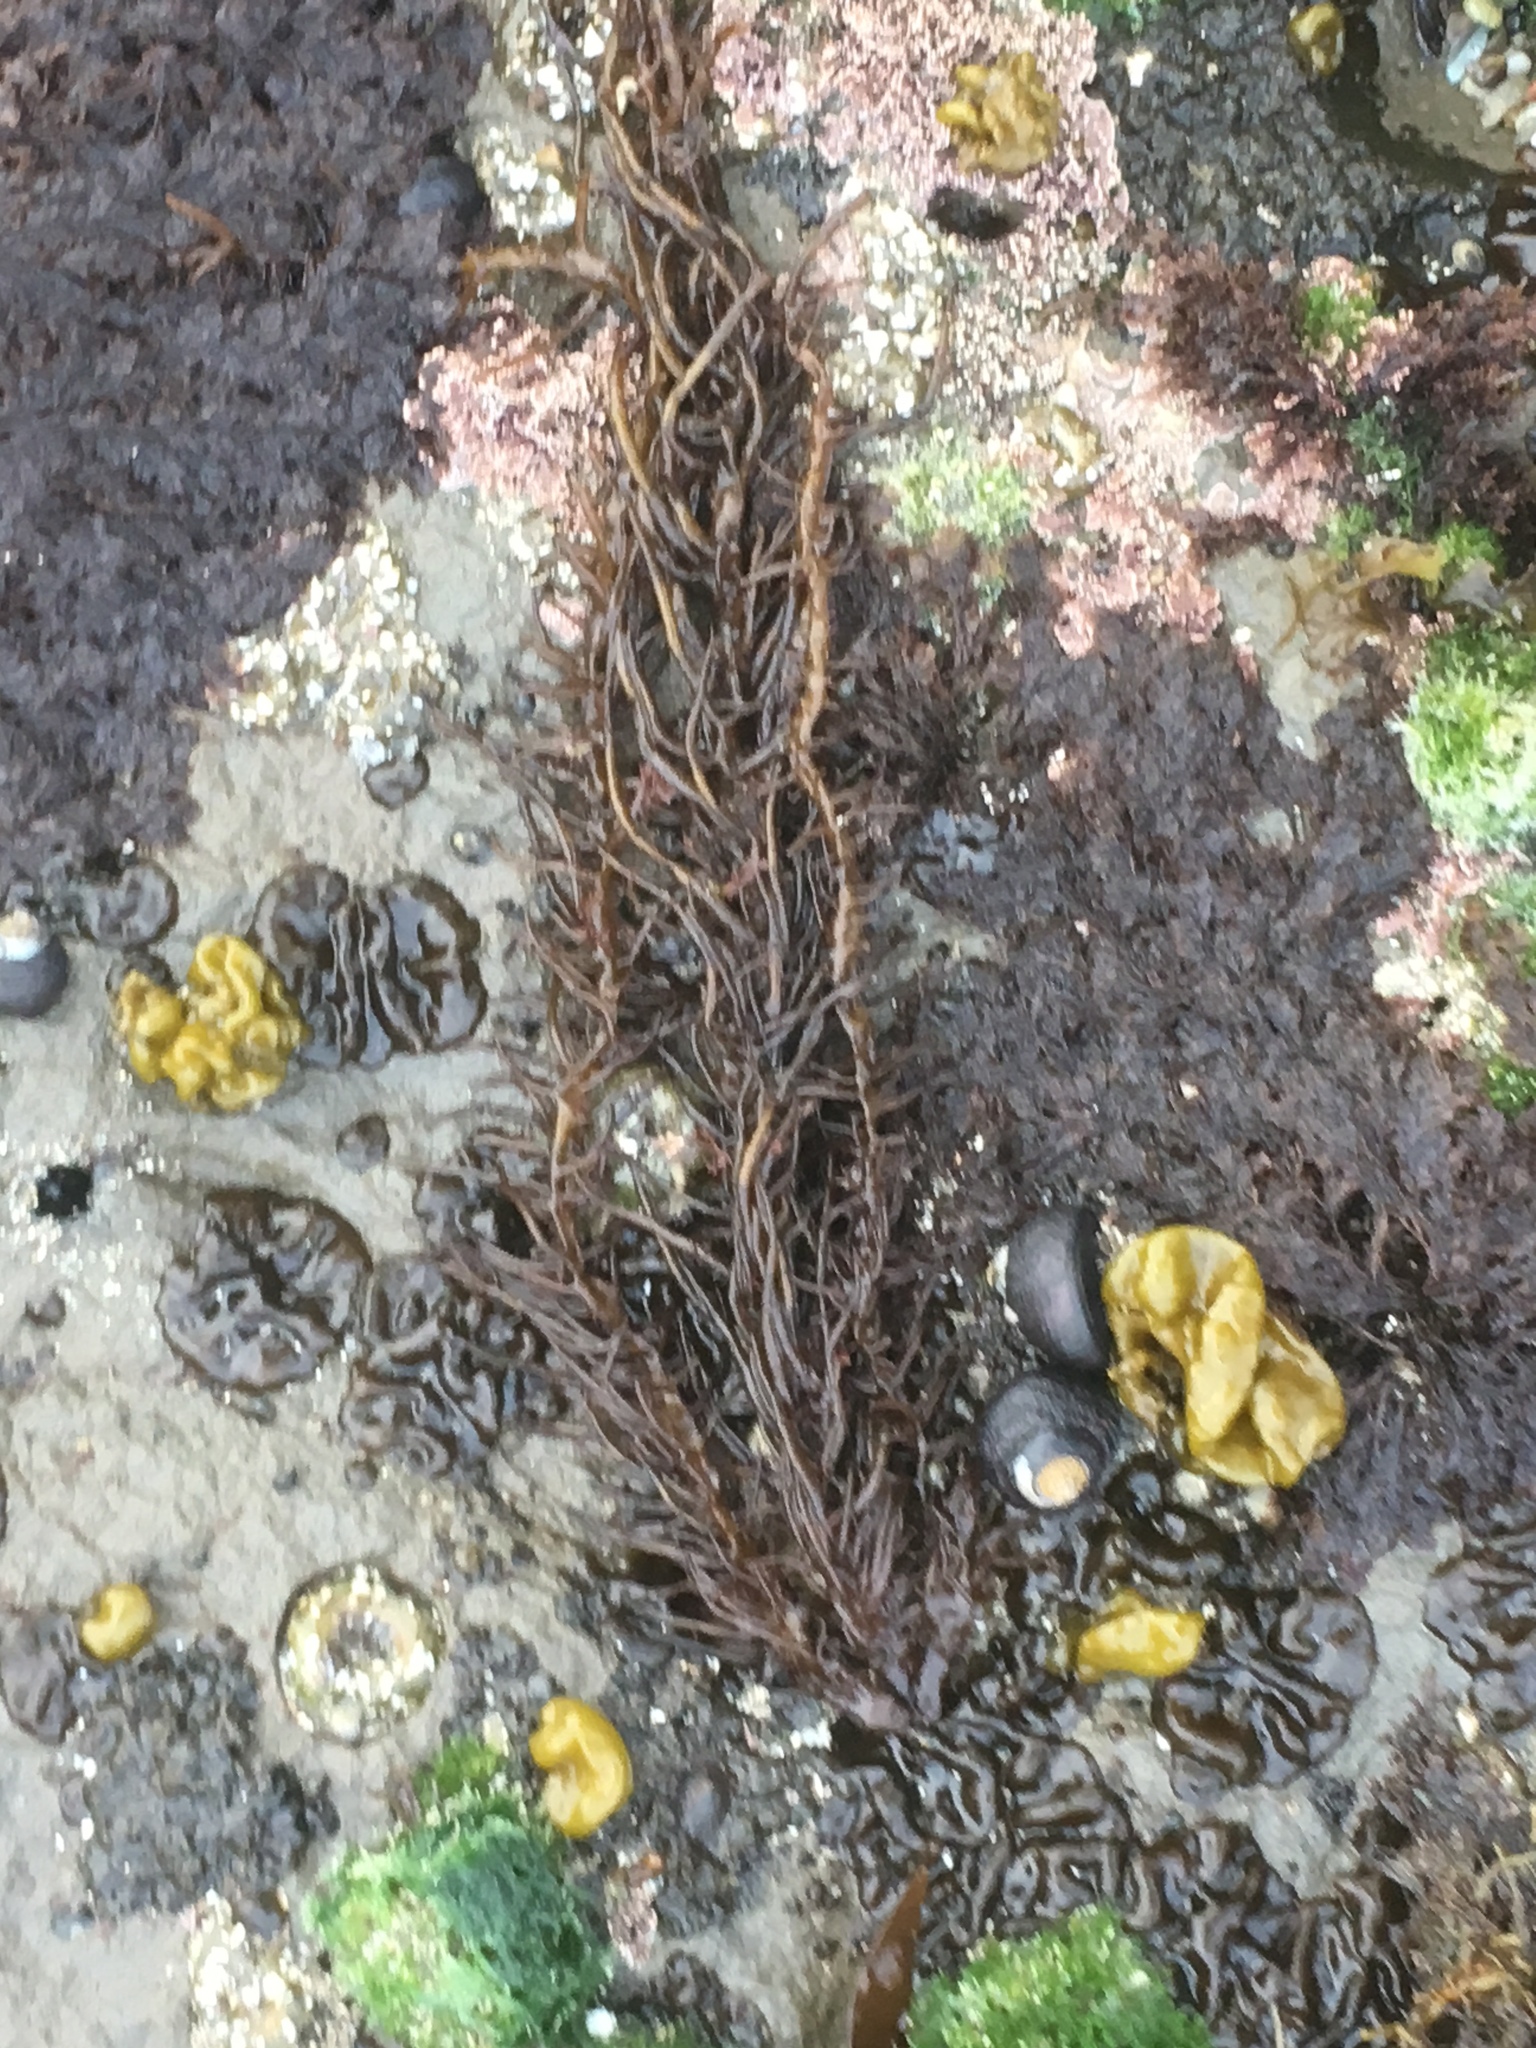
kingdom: Plantae
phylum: Rhodophyta
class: Florideophyceae
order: Nemaliales
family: Liagoraceae
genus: Cumagloia
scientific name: Cumagloia andersonii
